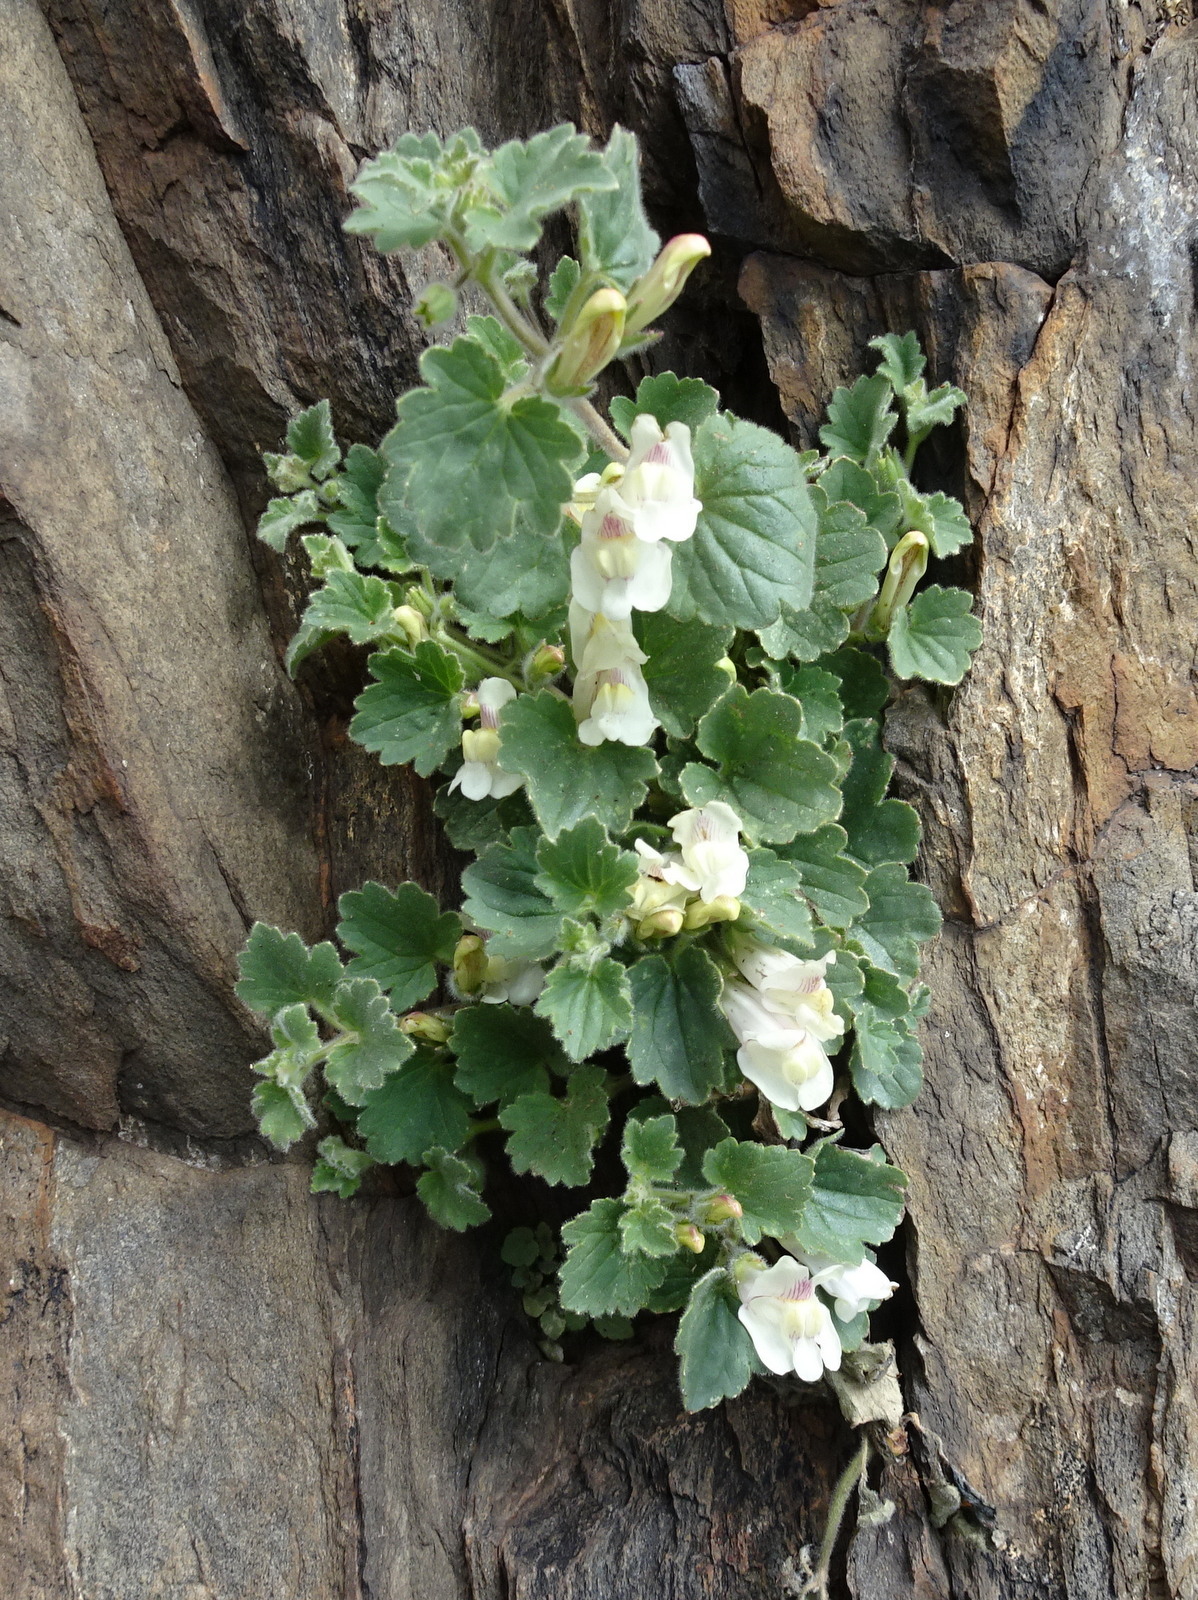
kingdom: Plantae
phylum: Tracheophyta
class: Magnoliopsida
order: Lamiales
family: Plantaginaceae
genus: Asarina
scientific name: Asarina procumbens
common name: Trailing snapdragon
